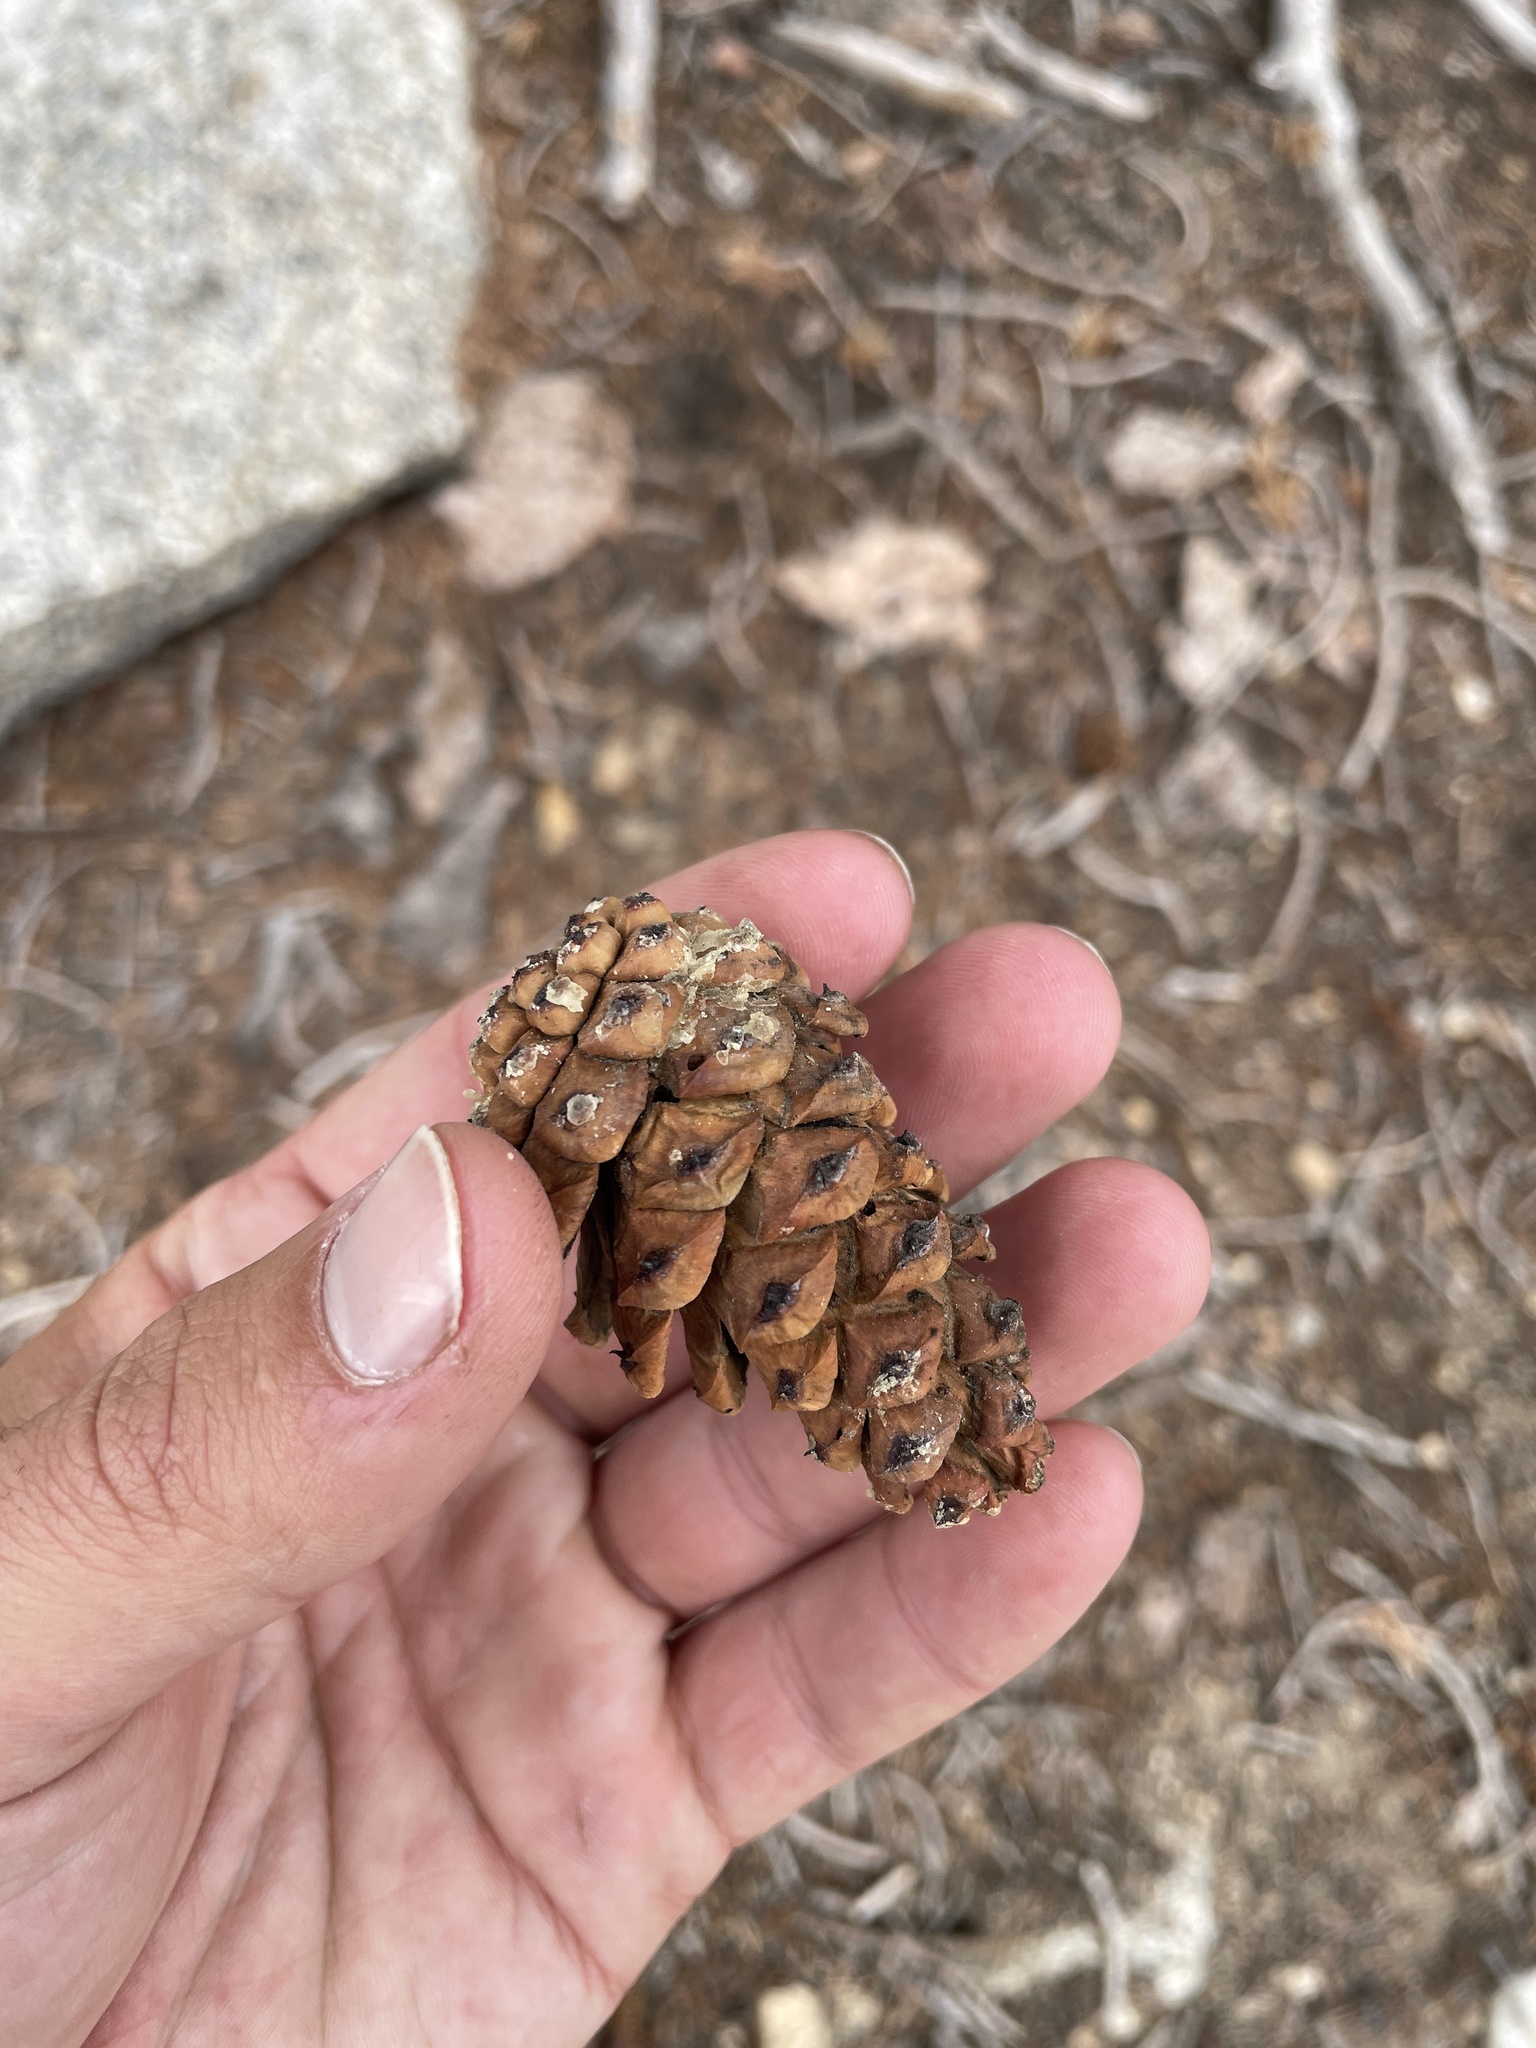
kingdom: Plantae
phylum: Tracheophyta
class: Pinopsida
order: Pinales
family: Pinaceae
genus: Pinus
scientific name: Pinus balfouriana
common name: Foxtail pine
